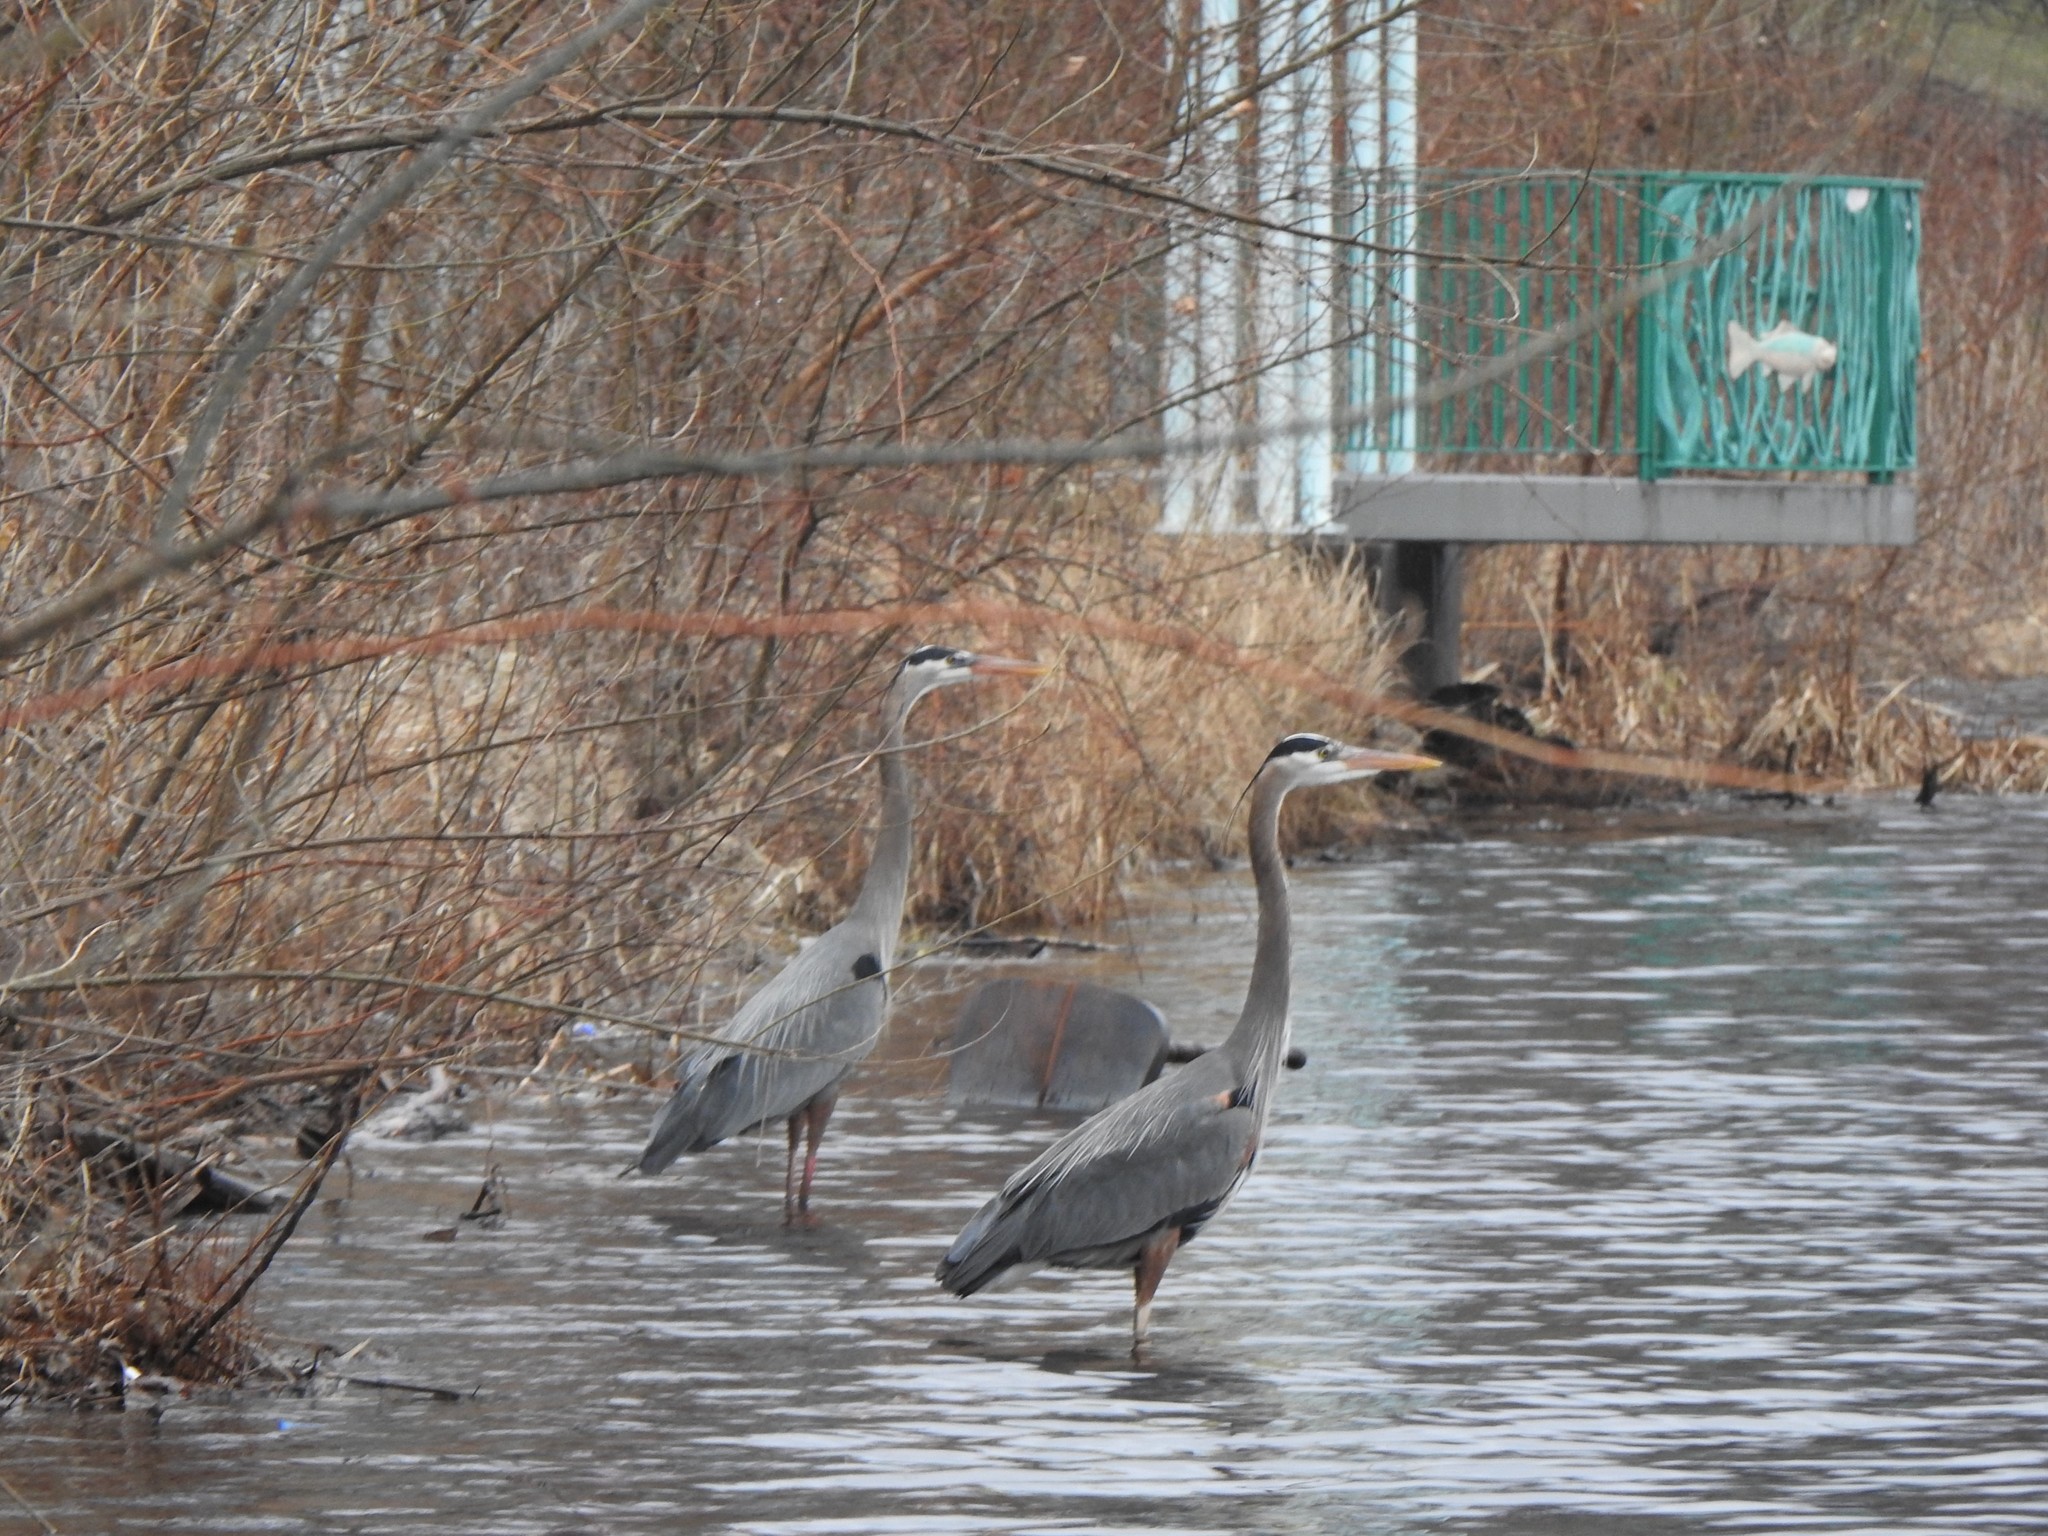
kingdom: Animalia
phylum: Chordata
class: Aves
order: Pelecaniformes
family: Ardeidae
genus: Ardea
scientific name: Ardea herodias
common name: Great blue heron
